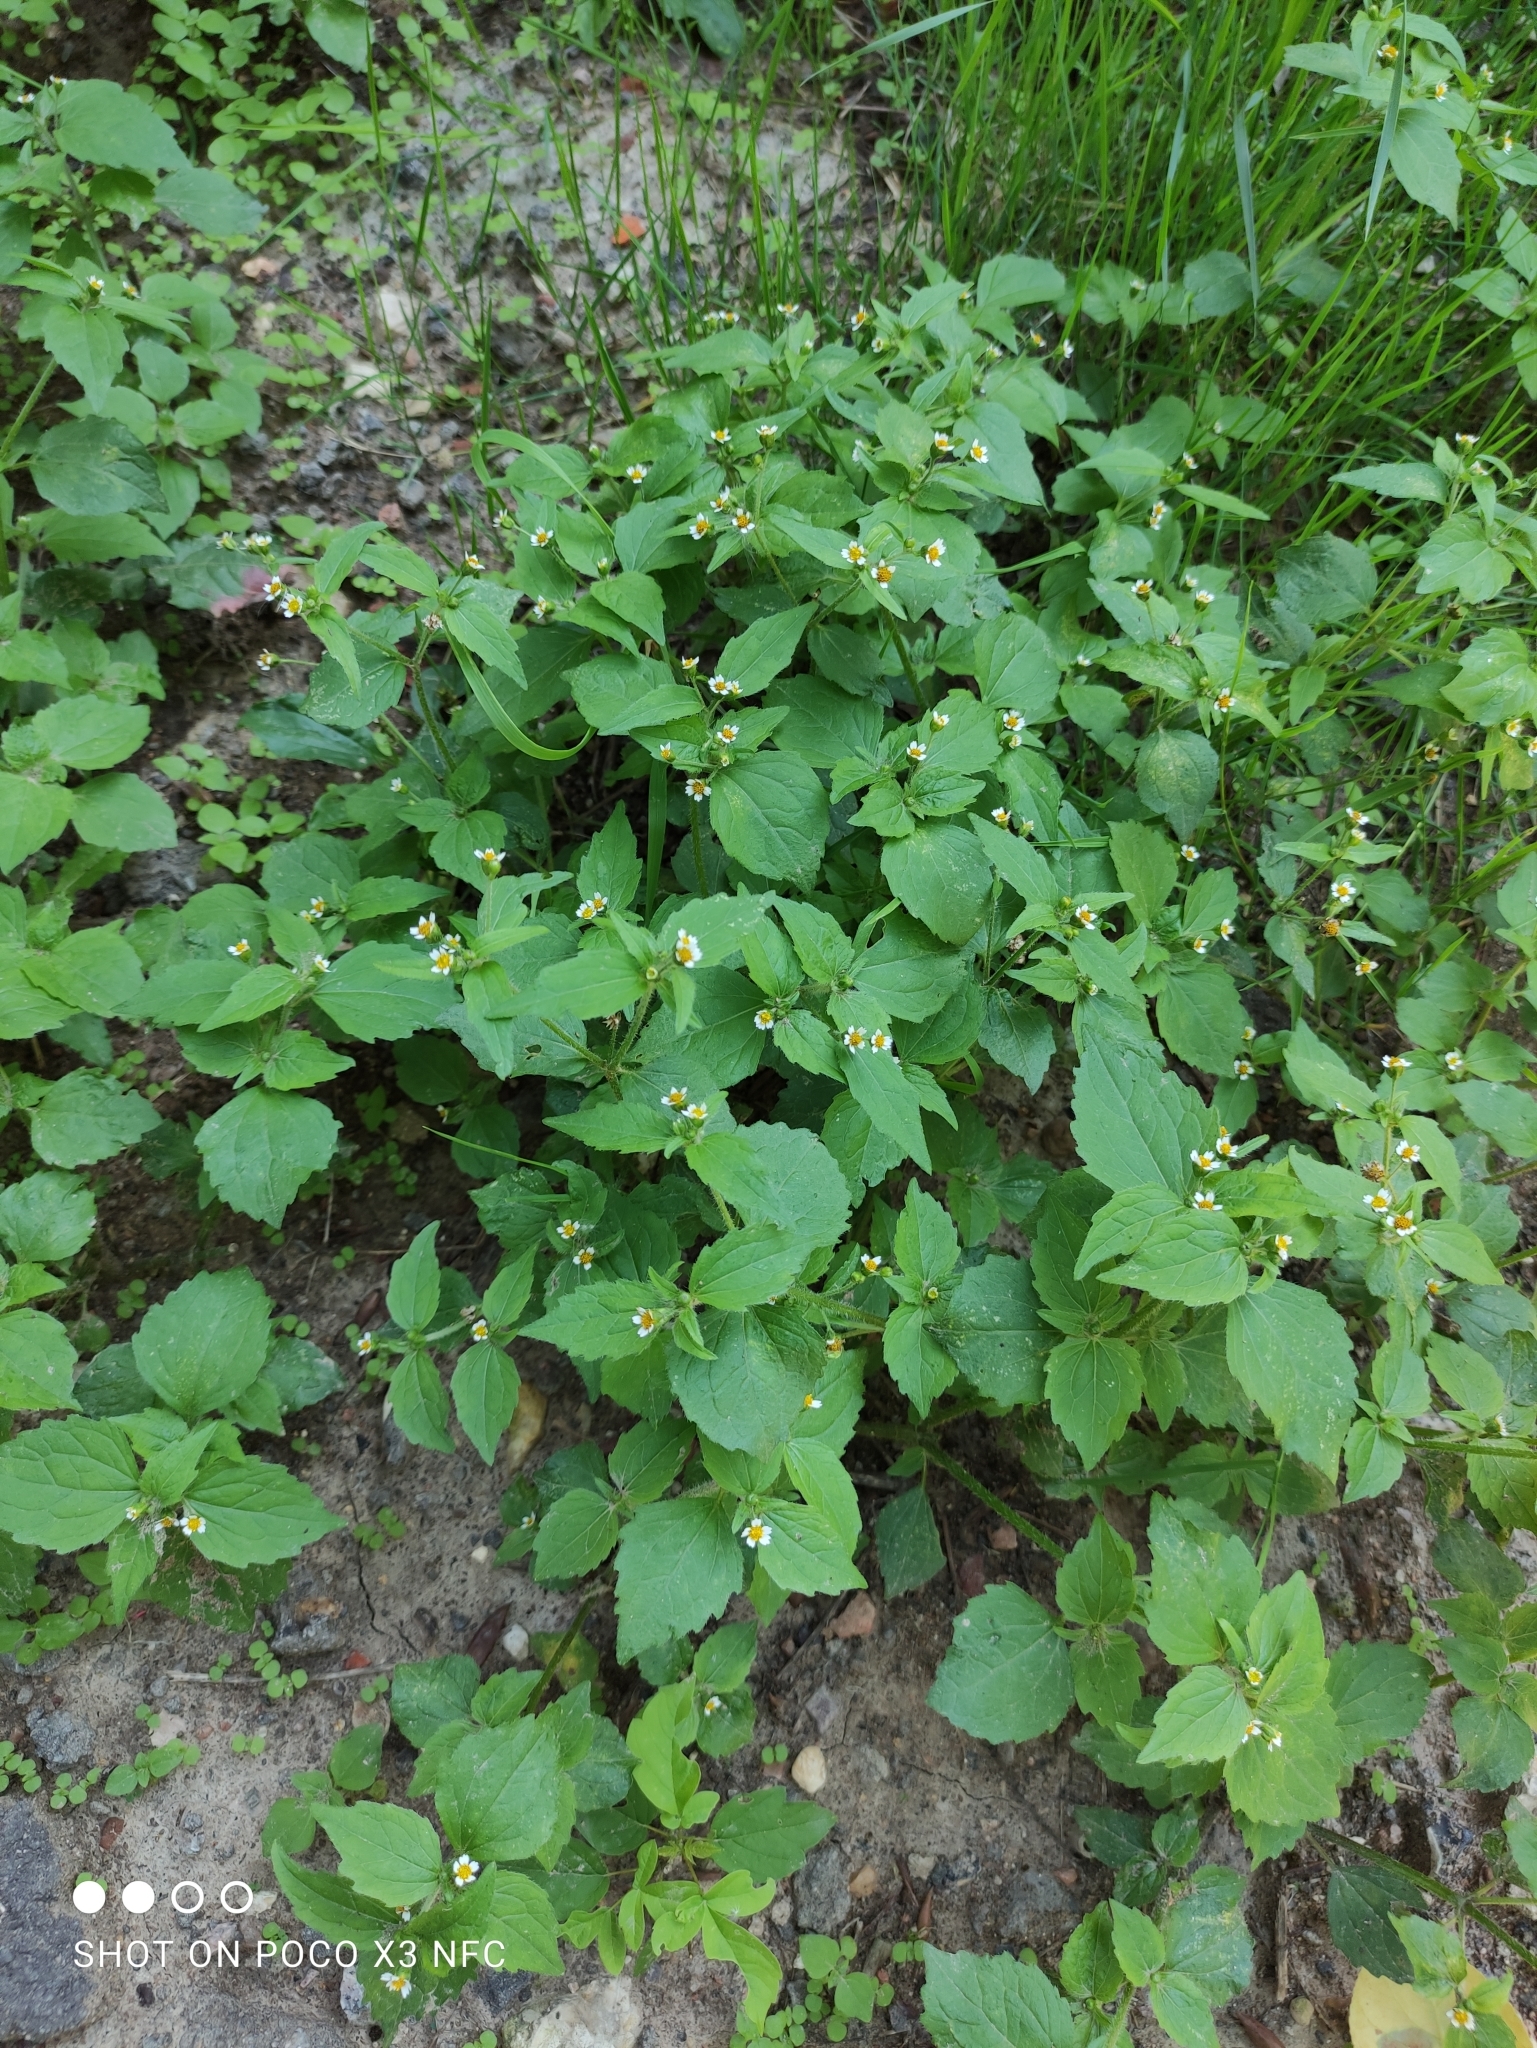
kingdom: Plantae
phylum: Tracheophyta
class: Magnoliopsida
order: Asterales
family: Asteraceae
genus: Galinsoga
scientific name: Galinsoga quadriradiata
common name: Shaggy soldier
